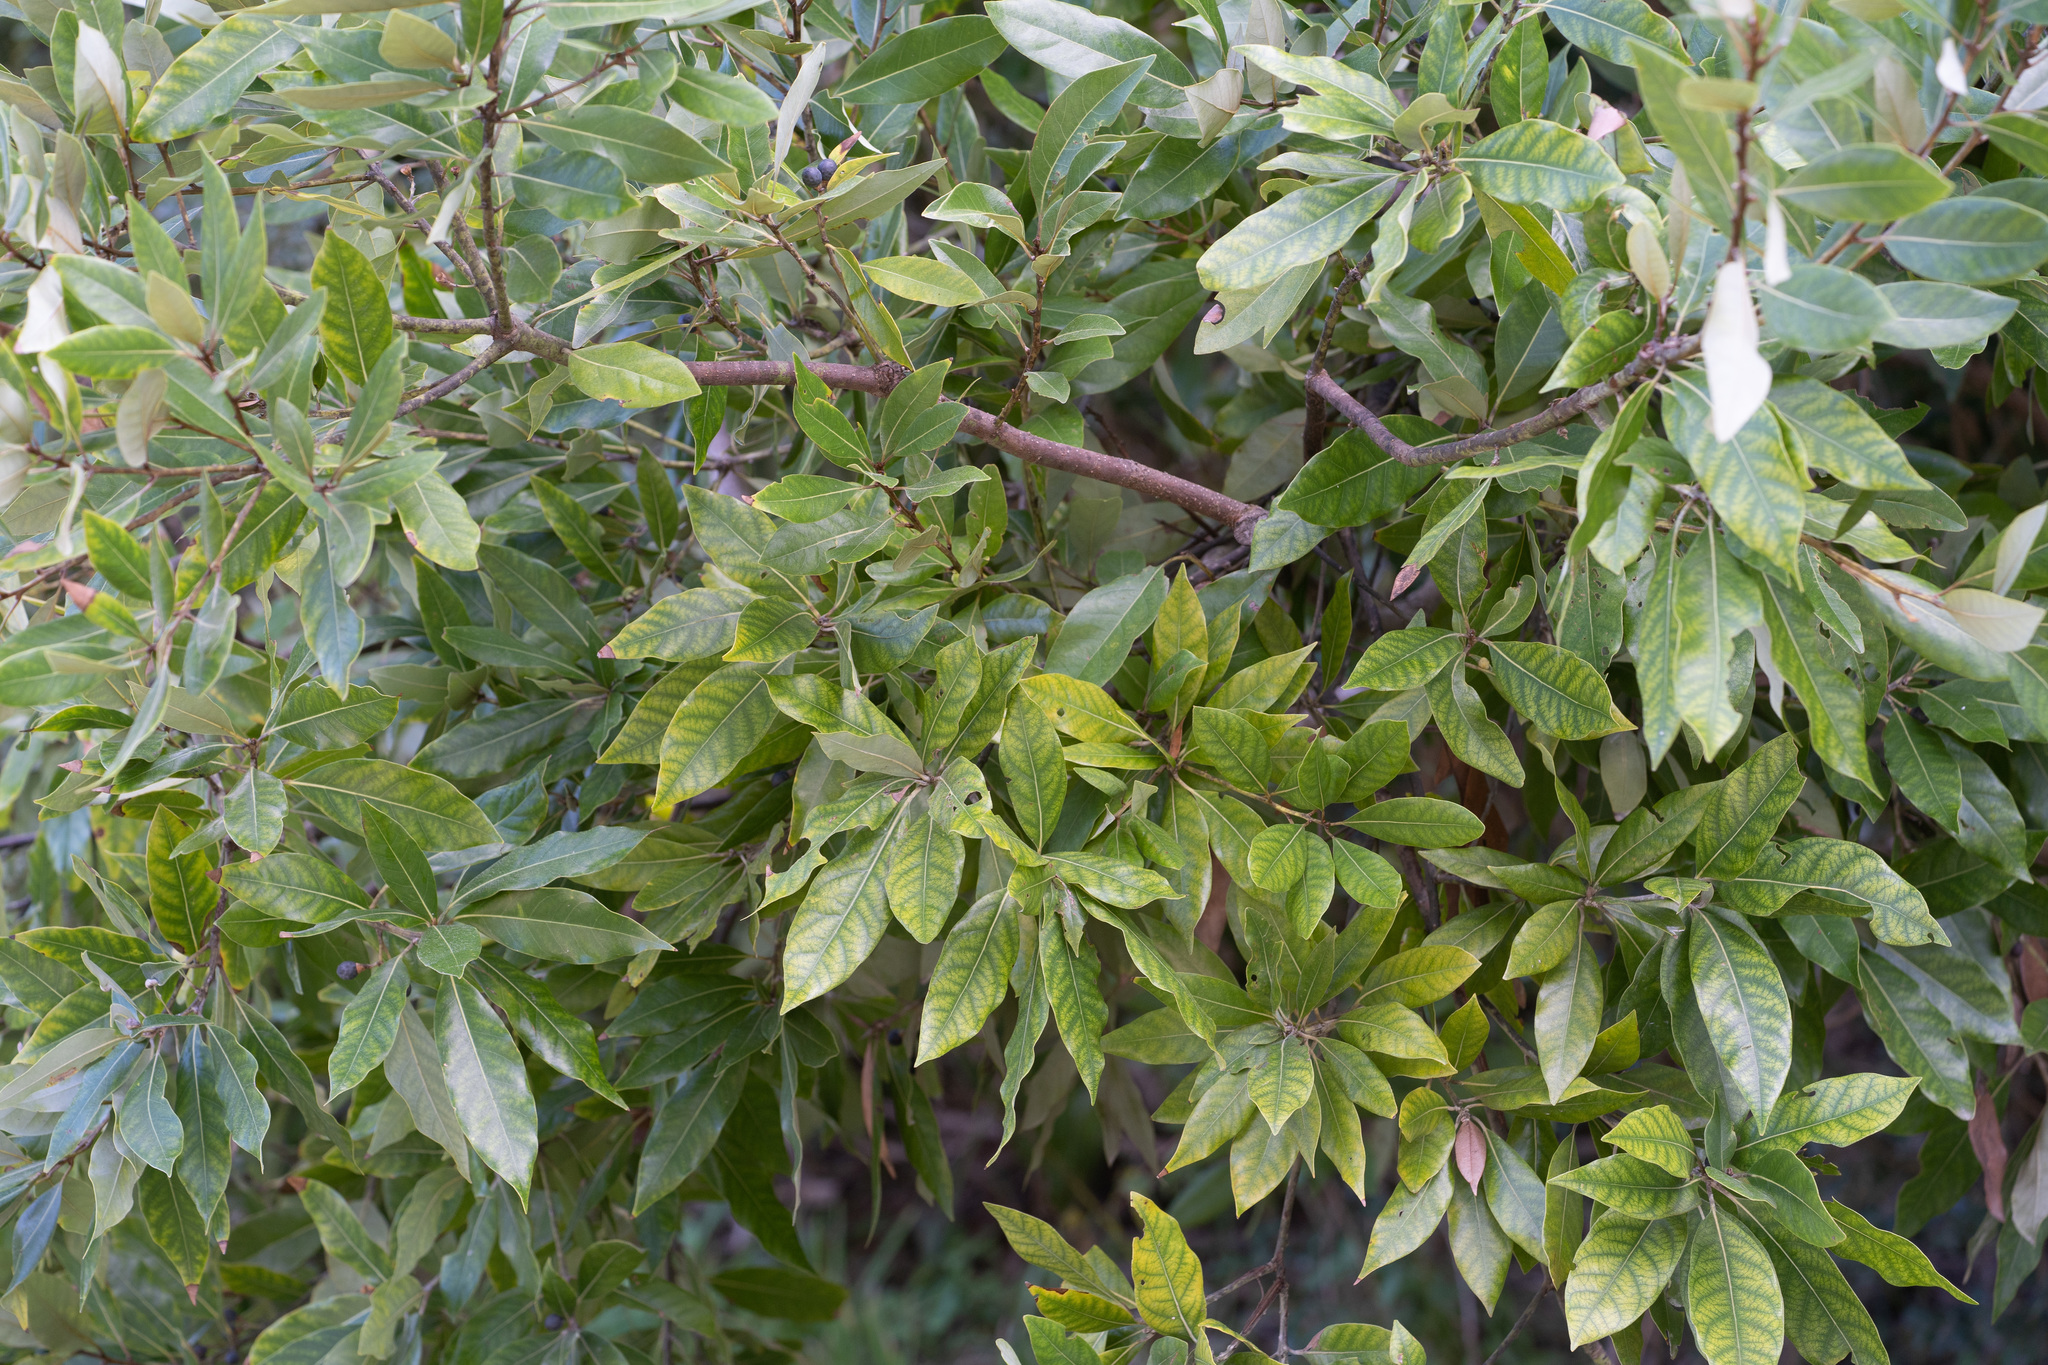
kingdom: Plantae
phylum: Tracheophyta
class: Magnoliopsida
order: Laurales
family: Lauraceae
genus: Persea
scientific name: Persea borbonia
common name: Redbay
